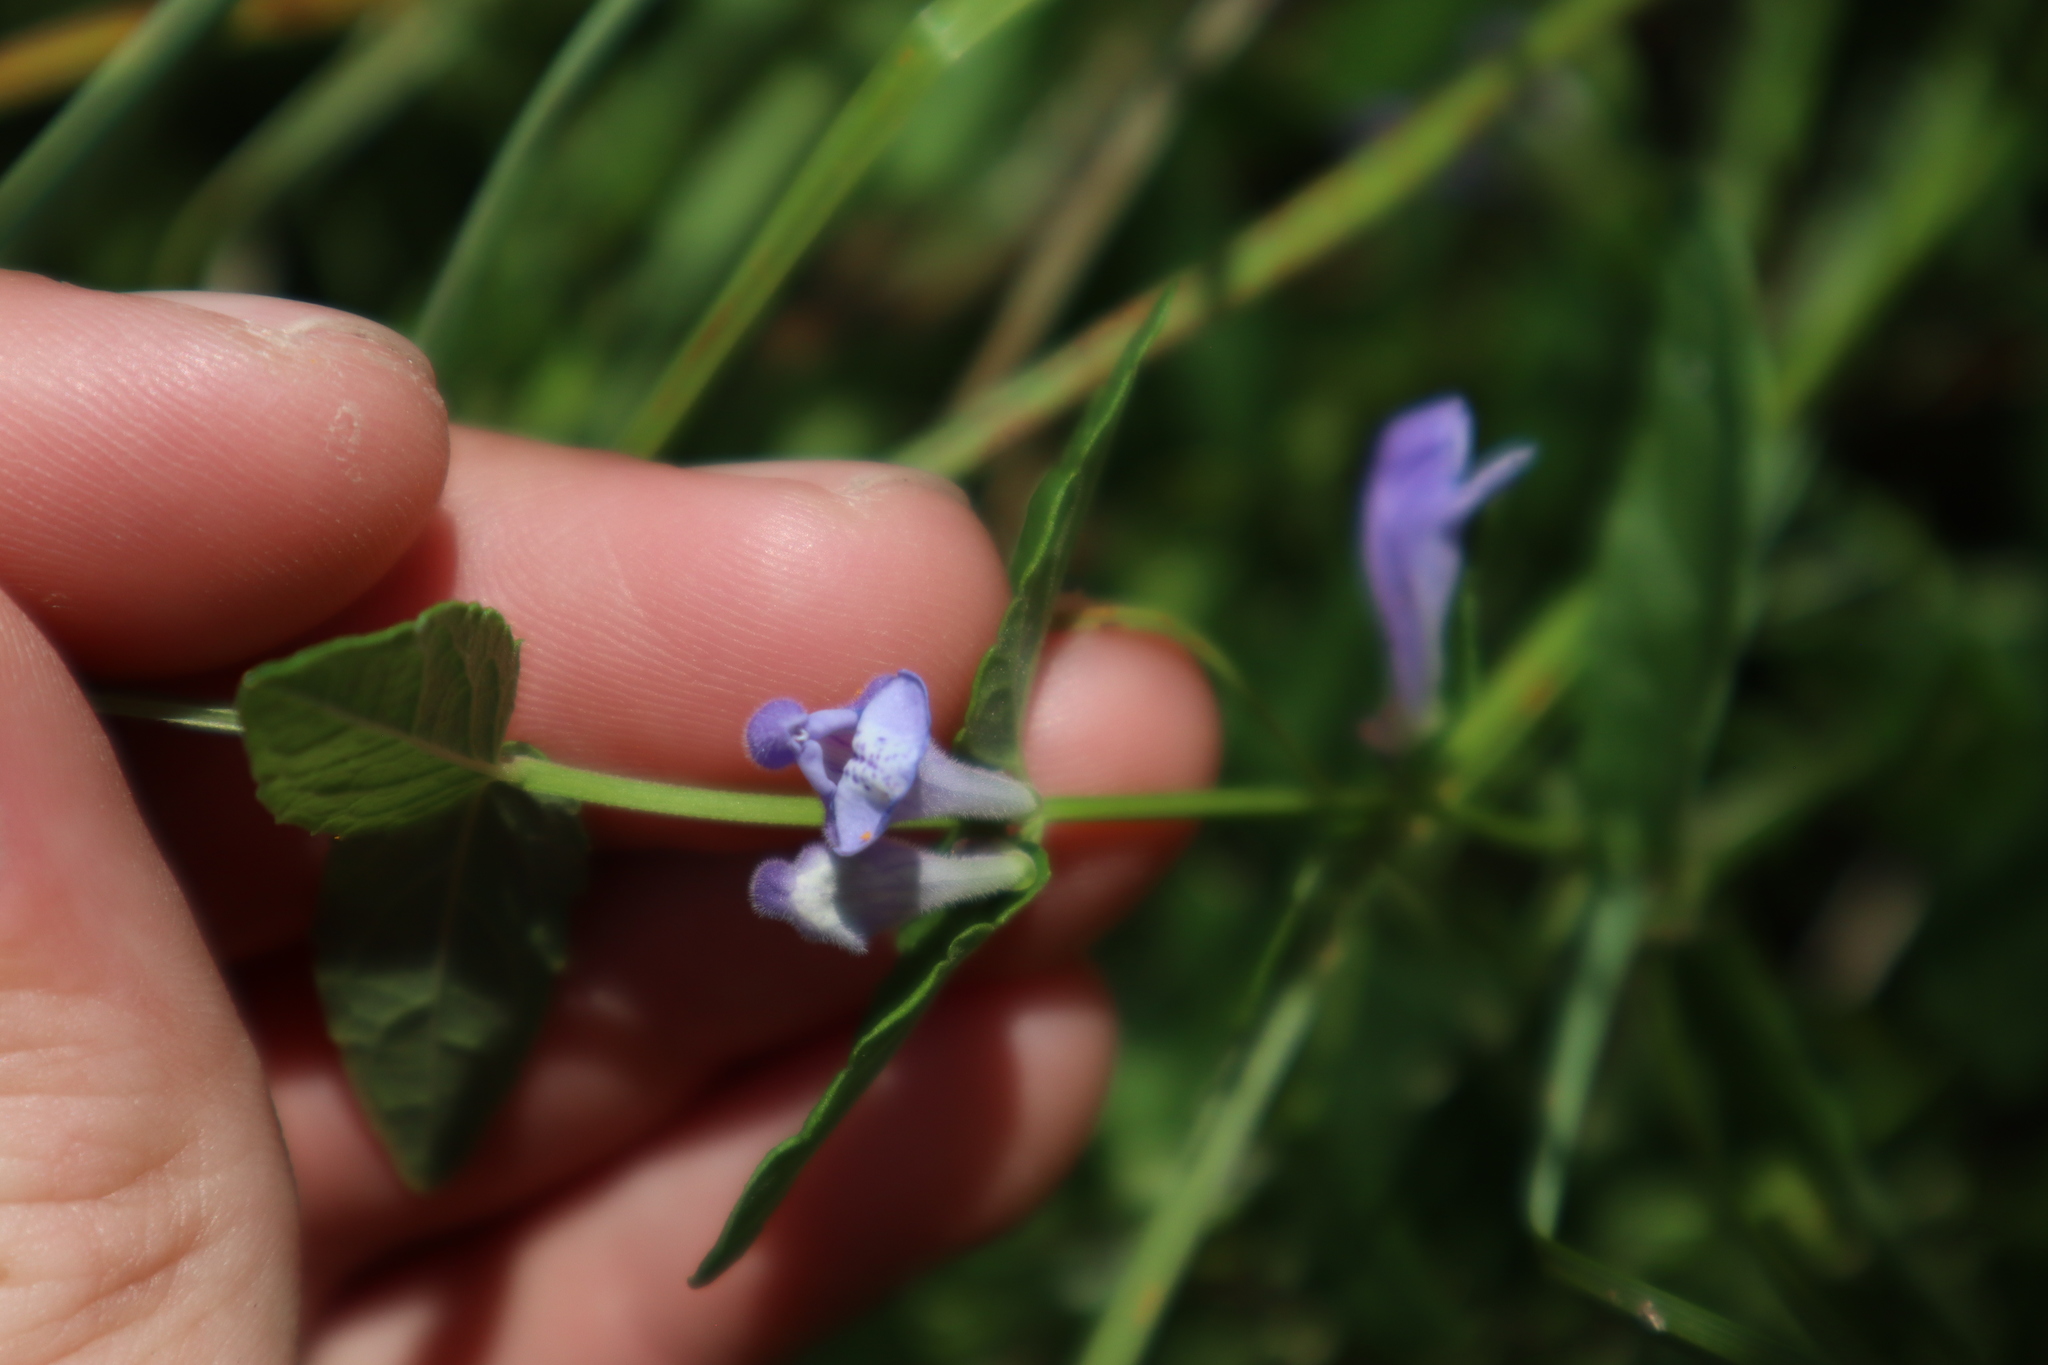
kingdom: Plantae
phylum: Tracheophyta
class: Magnoliopsida
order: Lamiales
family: Lamiaceae
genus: Scutellaria
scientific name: Scutellaria galericulata
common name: Skullcap
